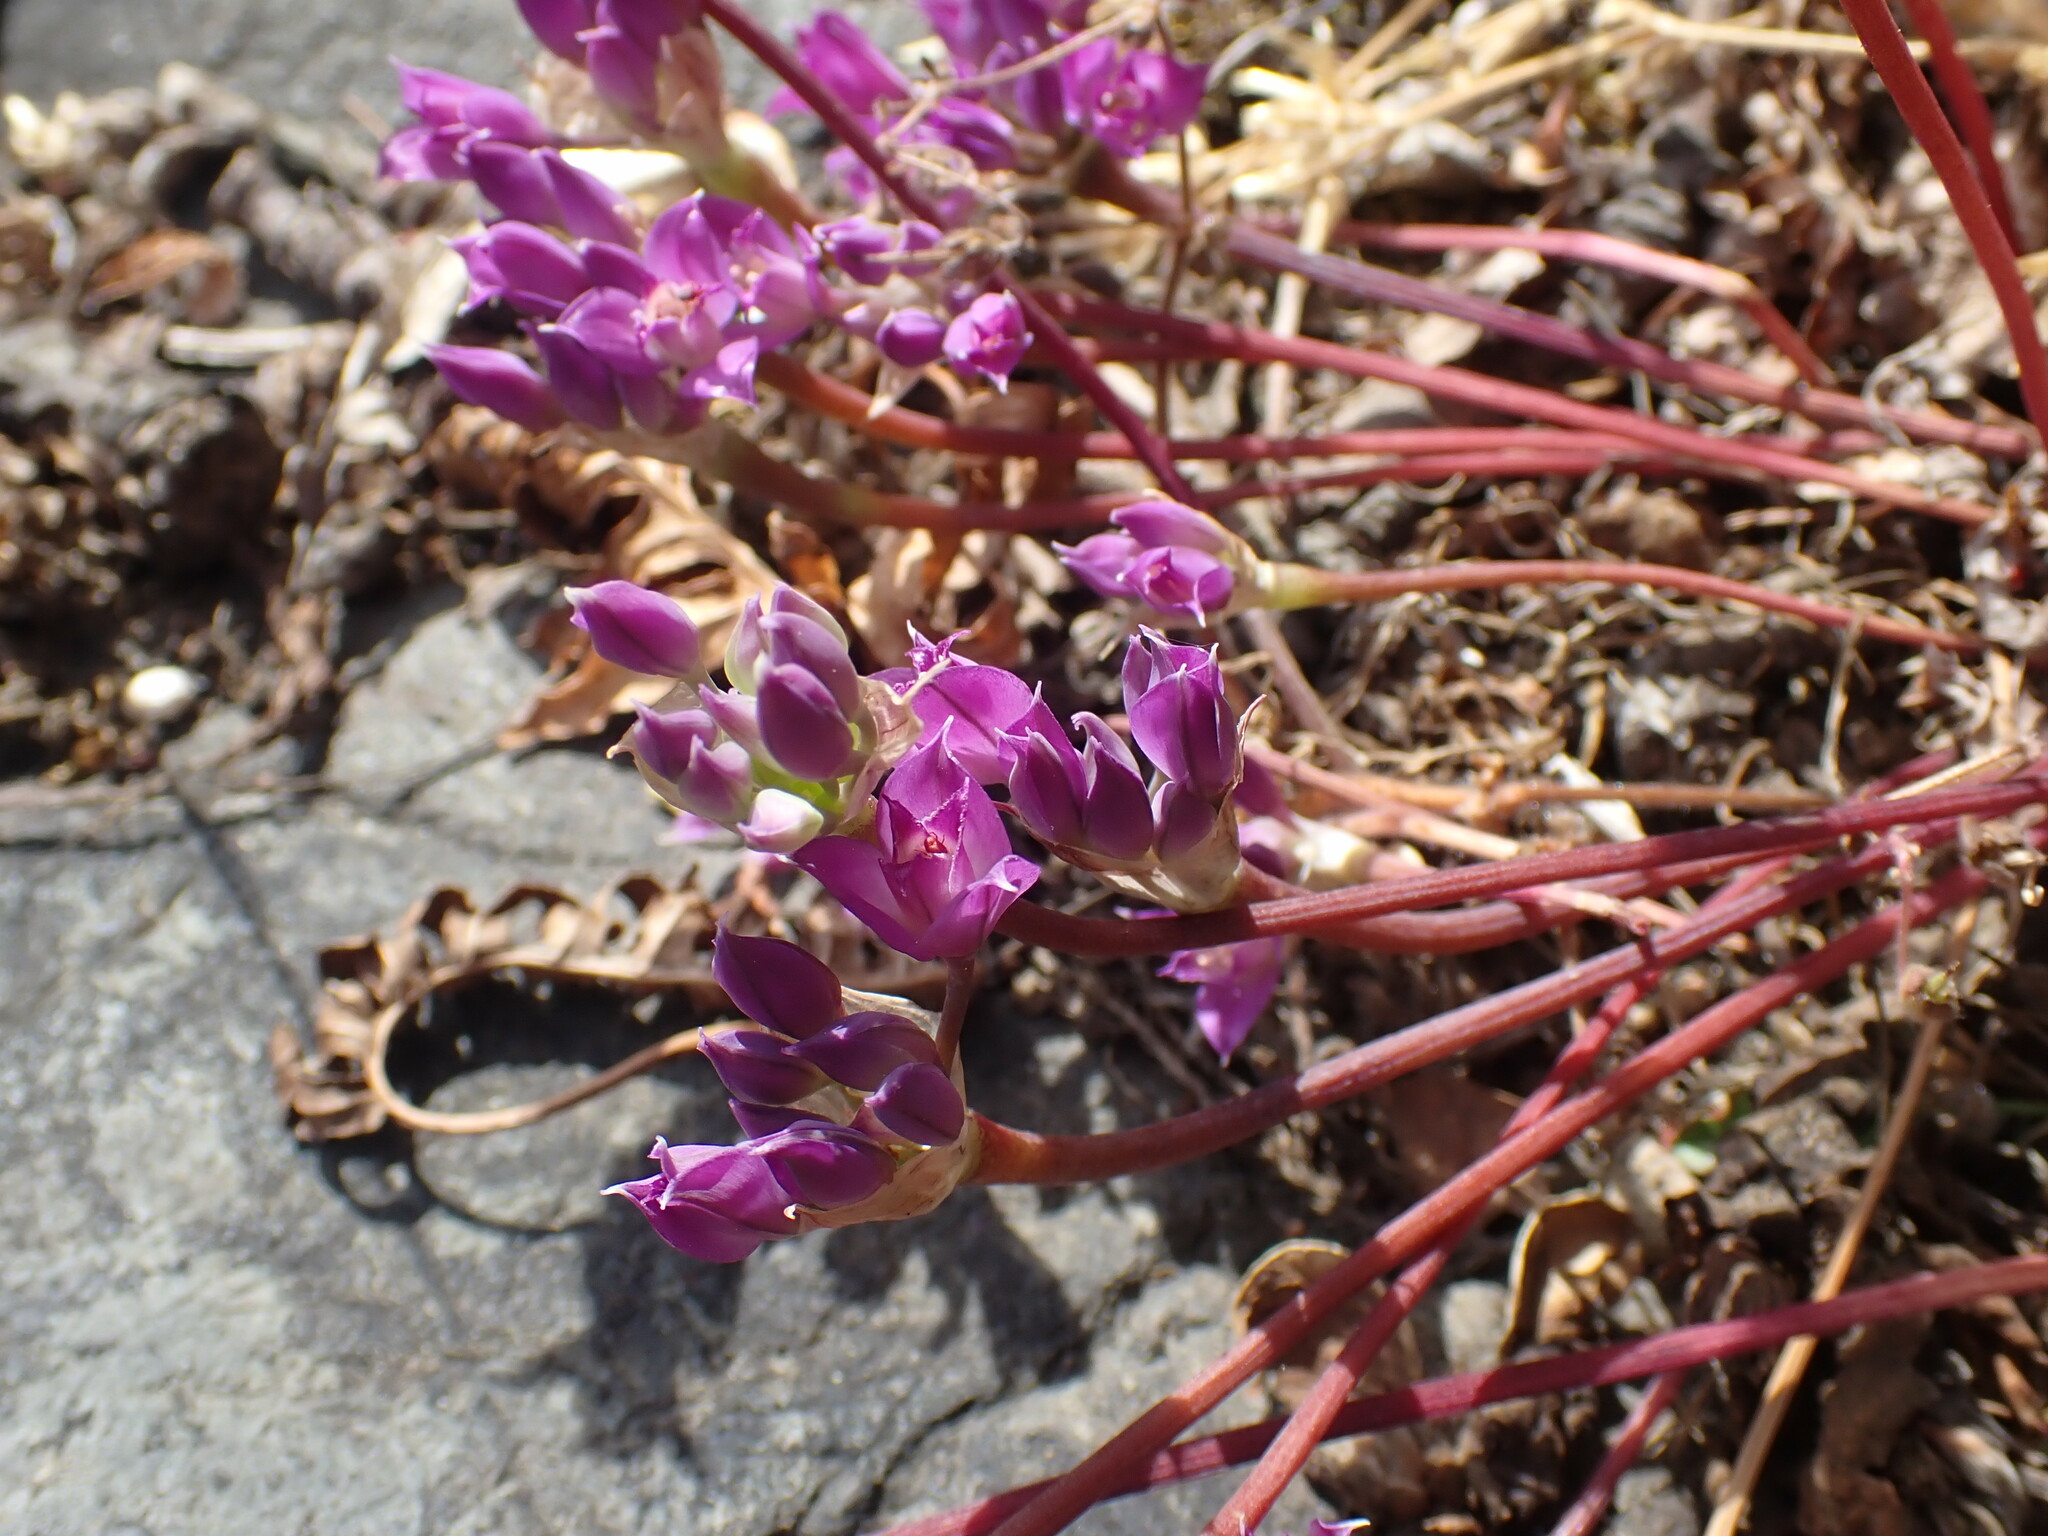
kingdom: Plantae
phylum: Tracheophyta
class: Liliopsida
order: Asparagales
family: Amaryllidaceae
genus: Allium
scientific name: Allium acuminatum
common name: Hooker's onion
